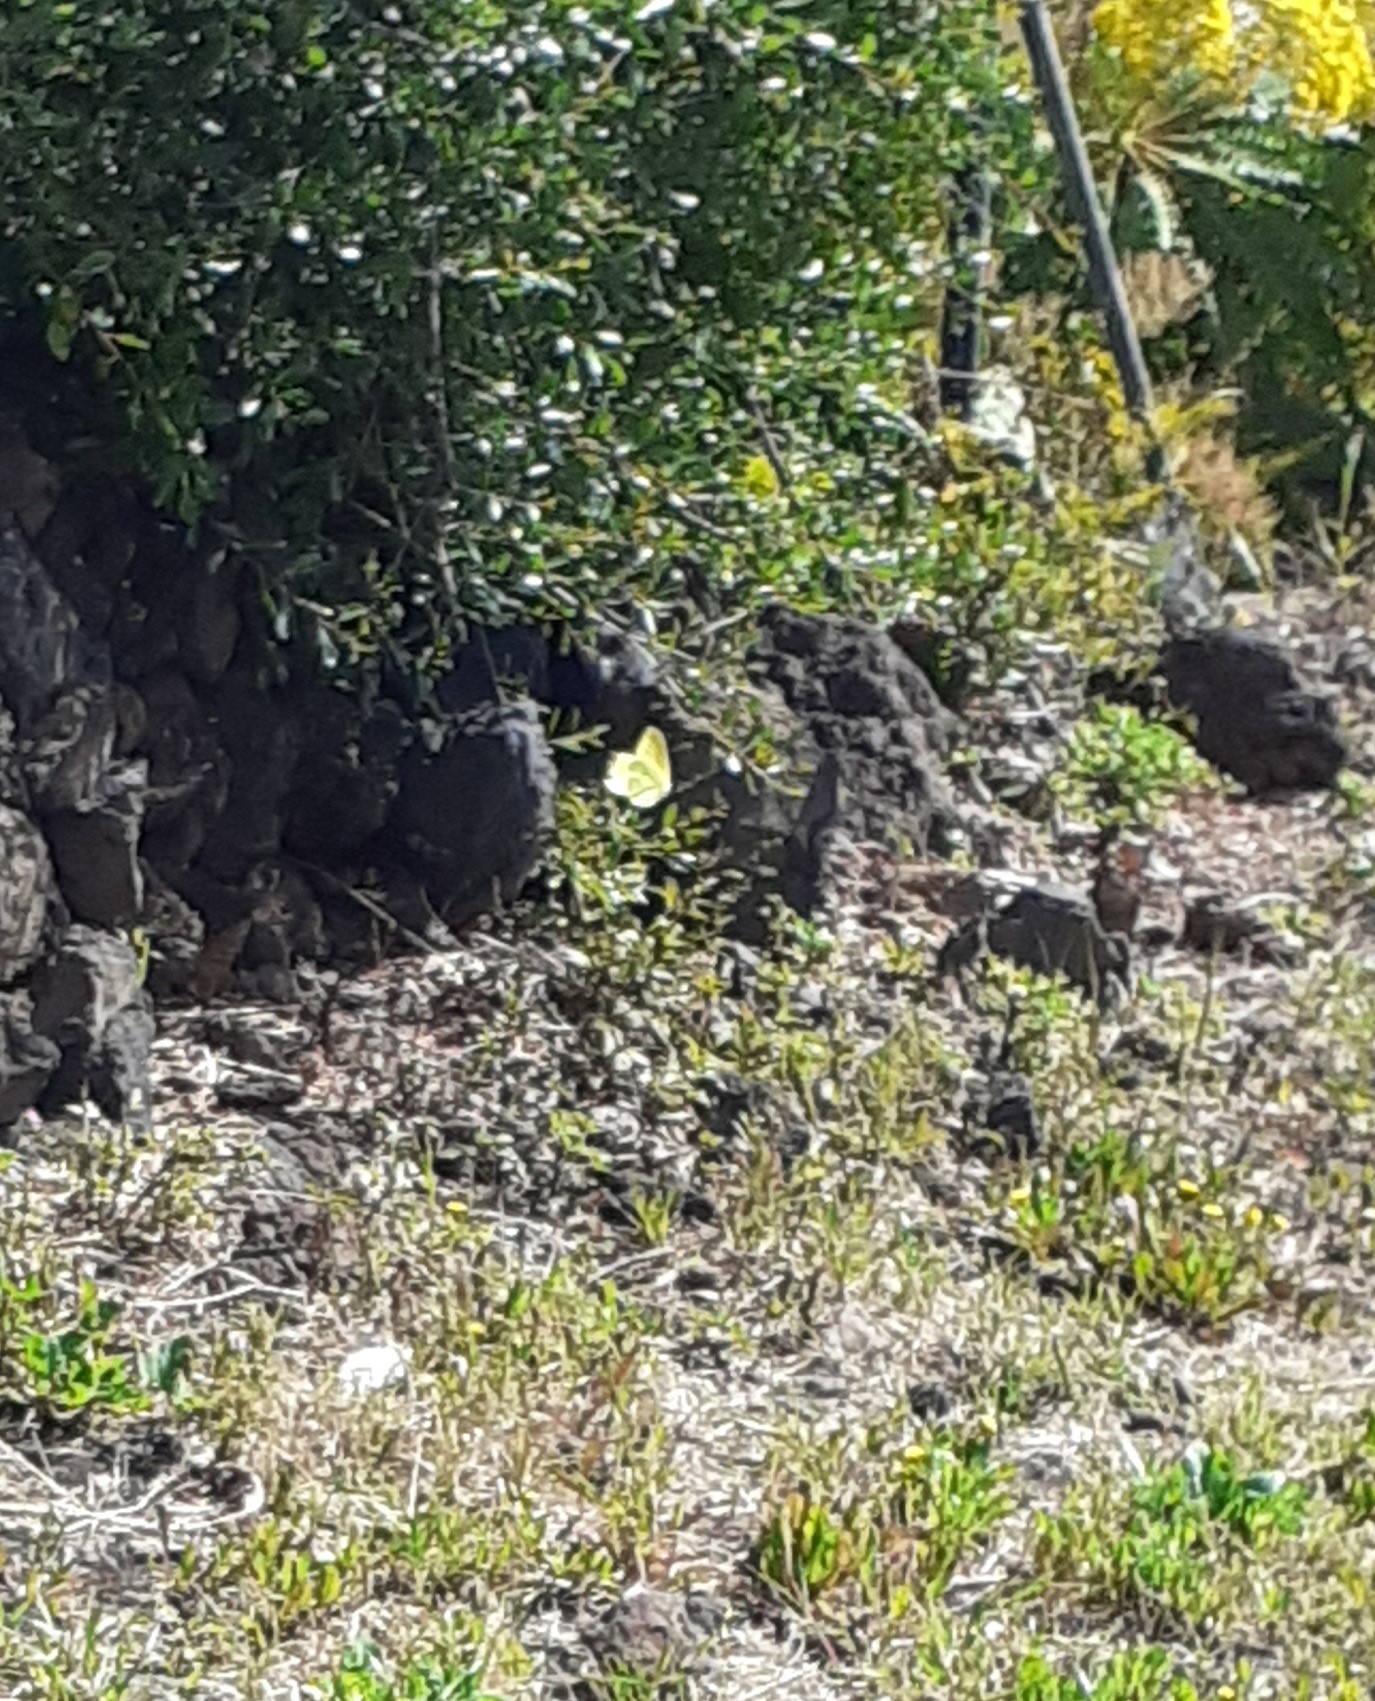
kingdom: Animalia
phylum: Arthropoda
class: Insecta
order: Lepidoptera
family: Pieridae
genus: Gonepteryx
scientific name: Gonepteryx cleobule
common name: Canary brimstone
